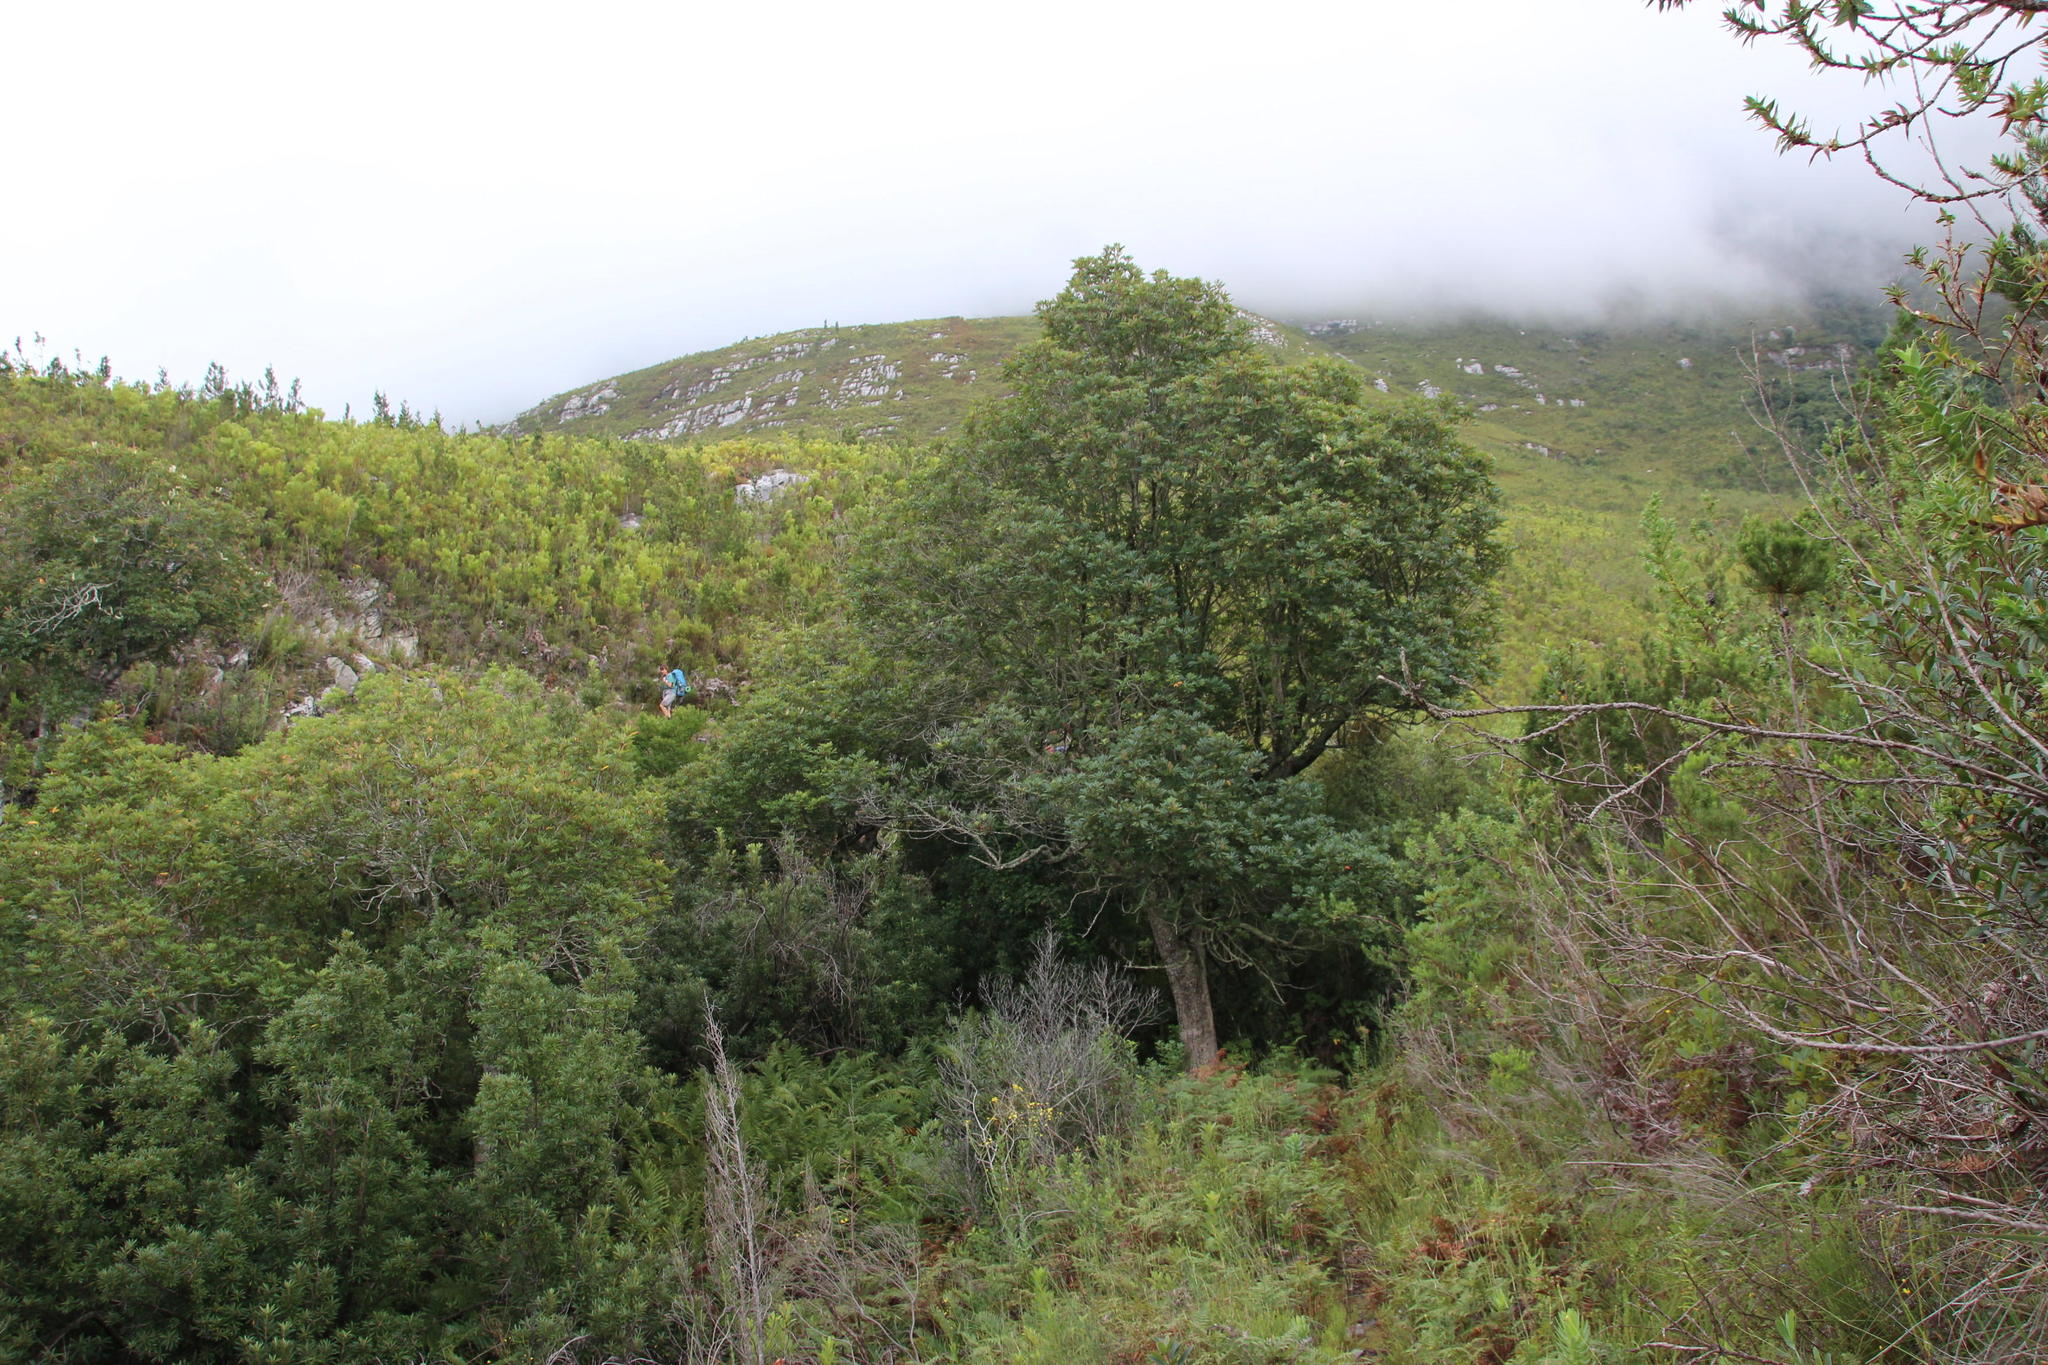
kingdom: Plantae
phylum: Tracheophyta
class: Magnoliopsida
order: Oxalidales
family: Cunoniaceae
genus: Cunonia
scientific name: Cunonia capensis
